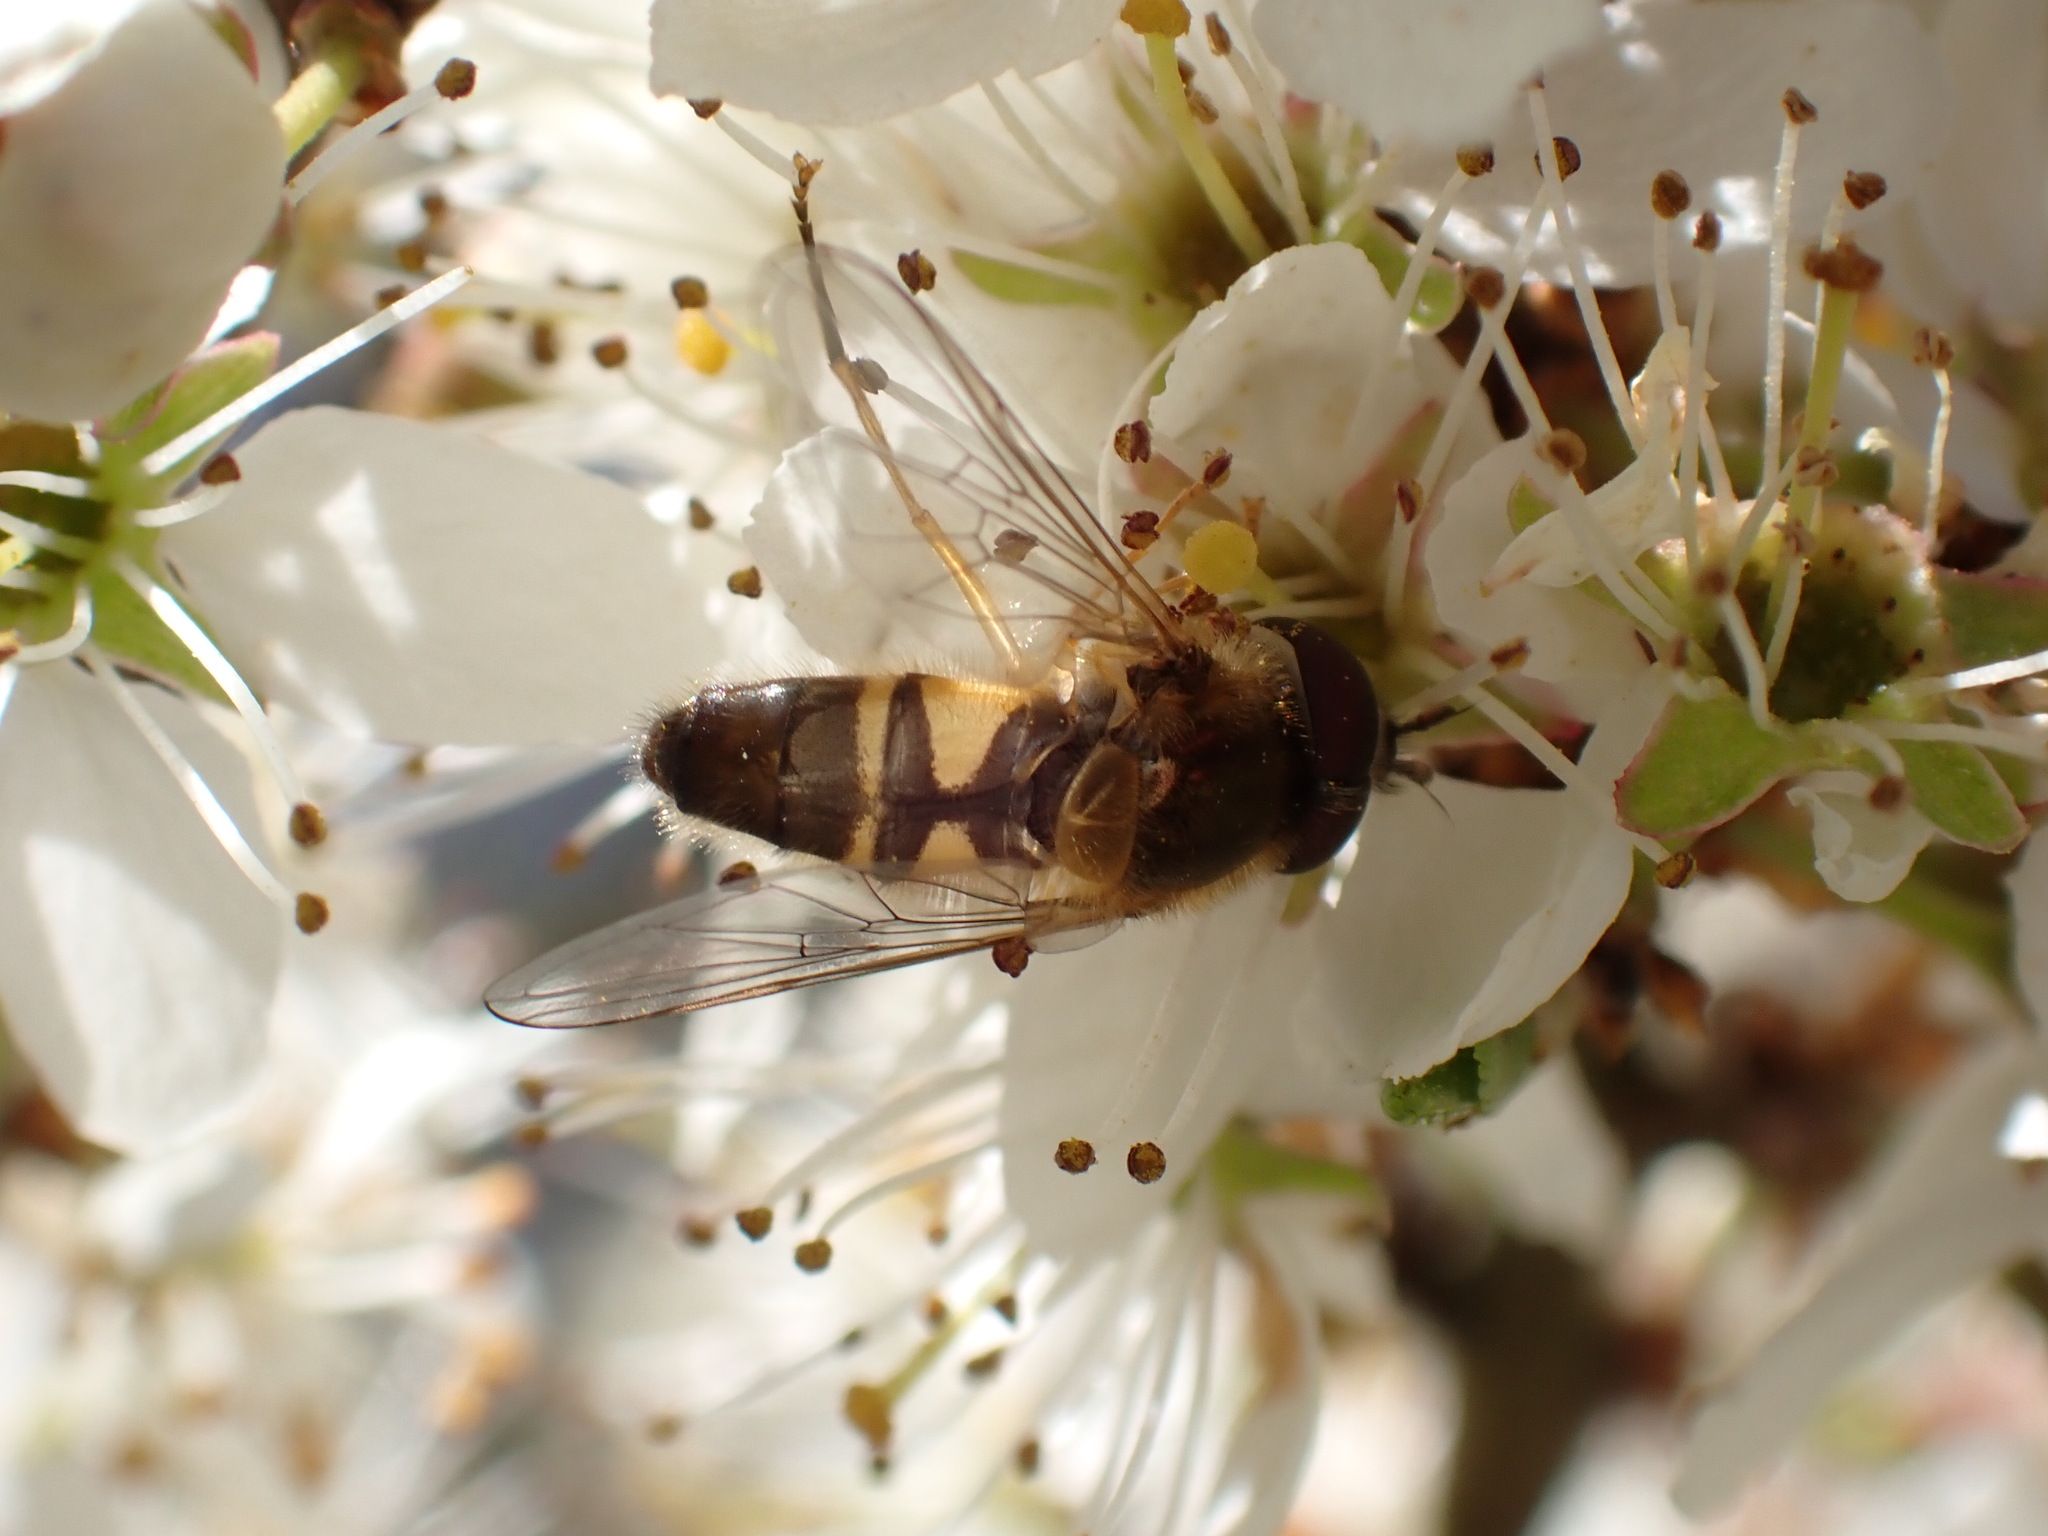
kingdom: Animalia
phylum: Arthropoda
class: Insecta
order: Diptera
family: Syrphidae
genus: Epistrophe
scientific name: Epistrophe eligans
